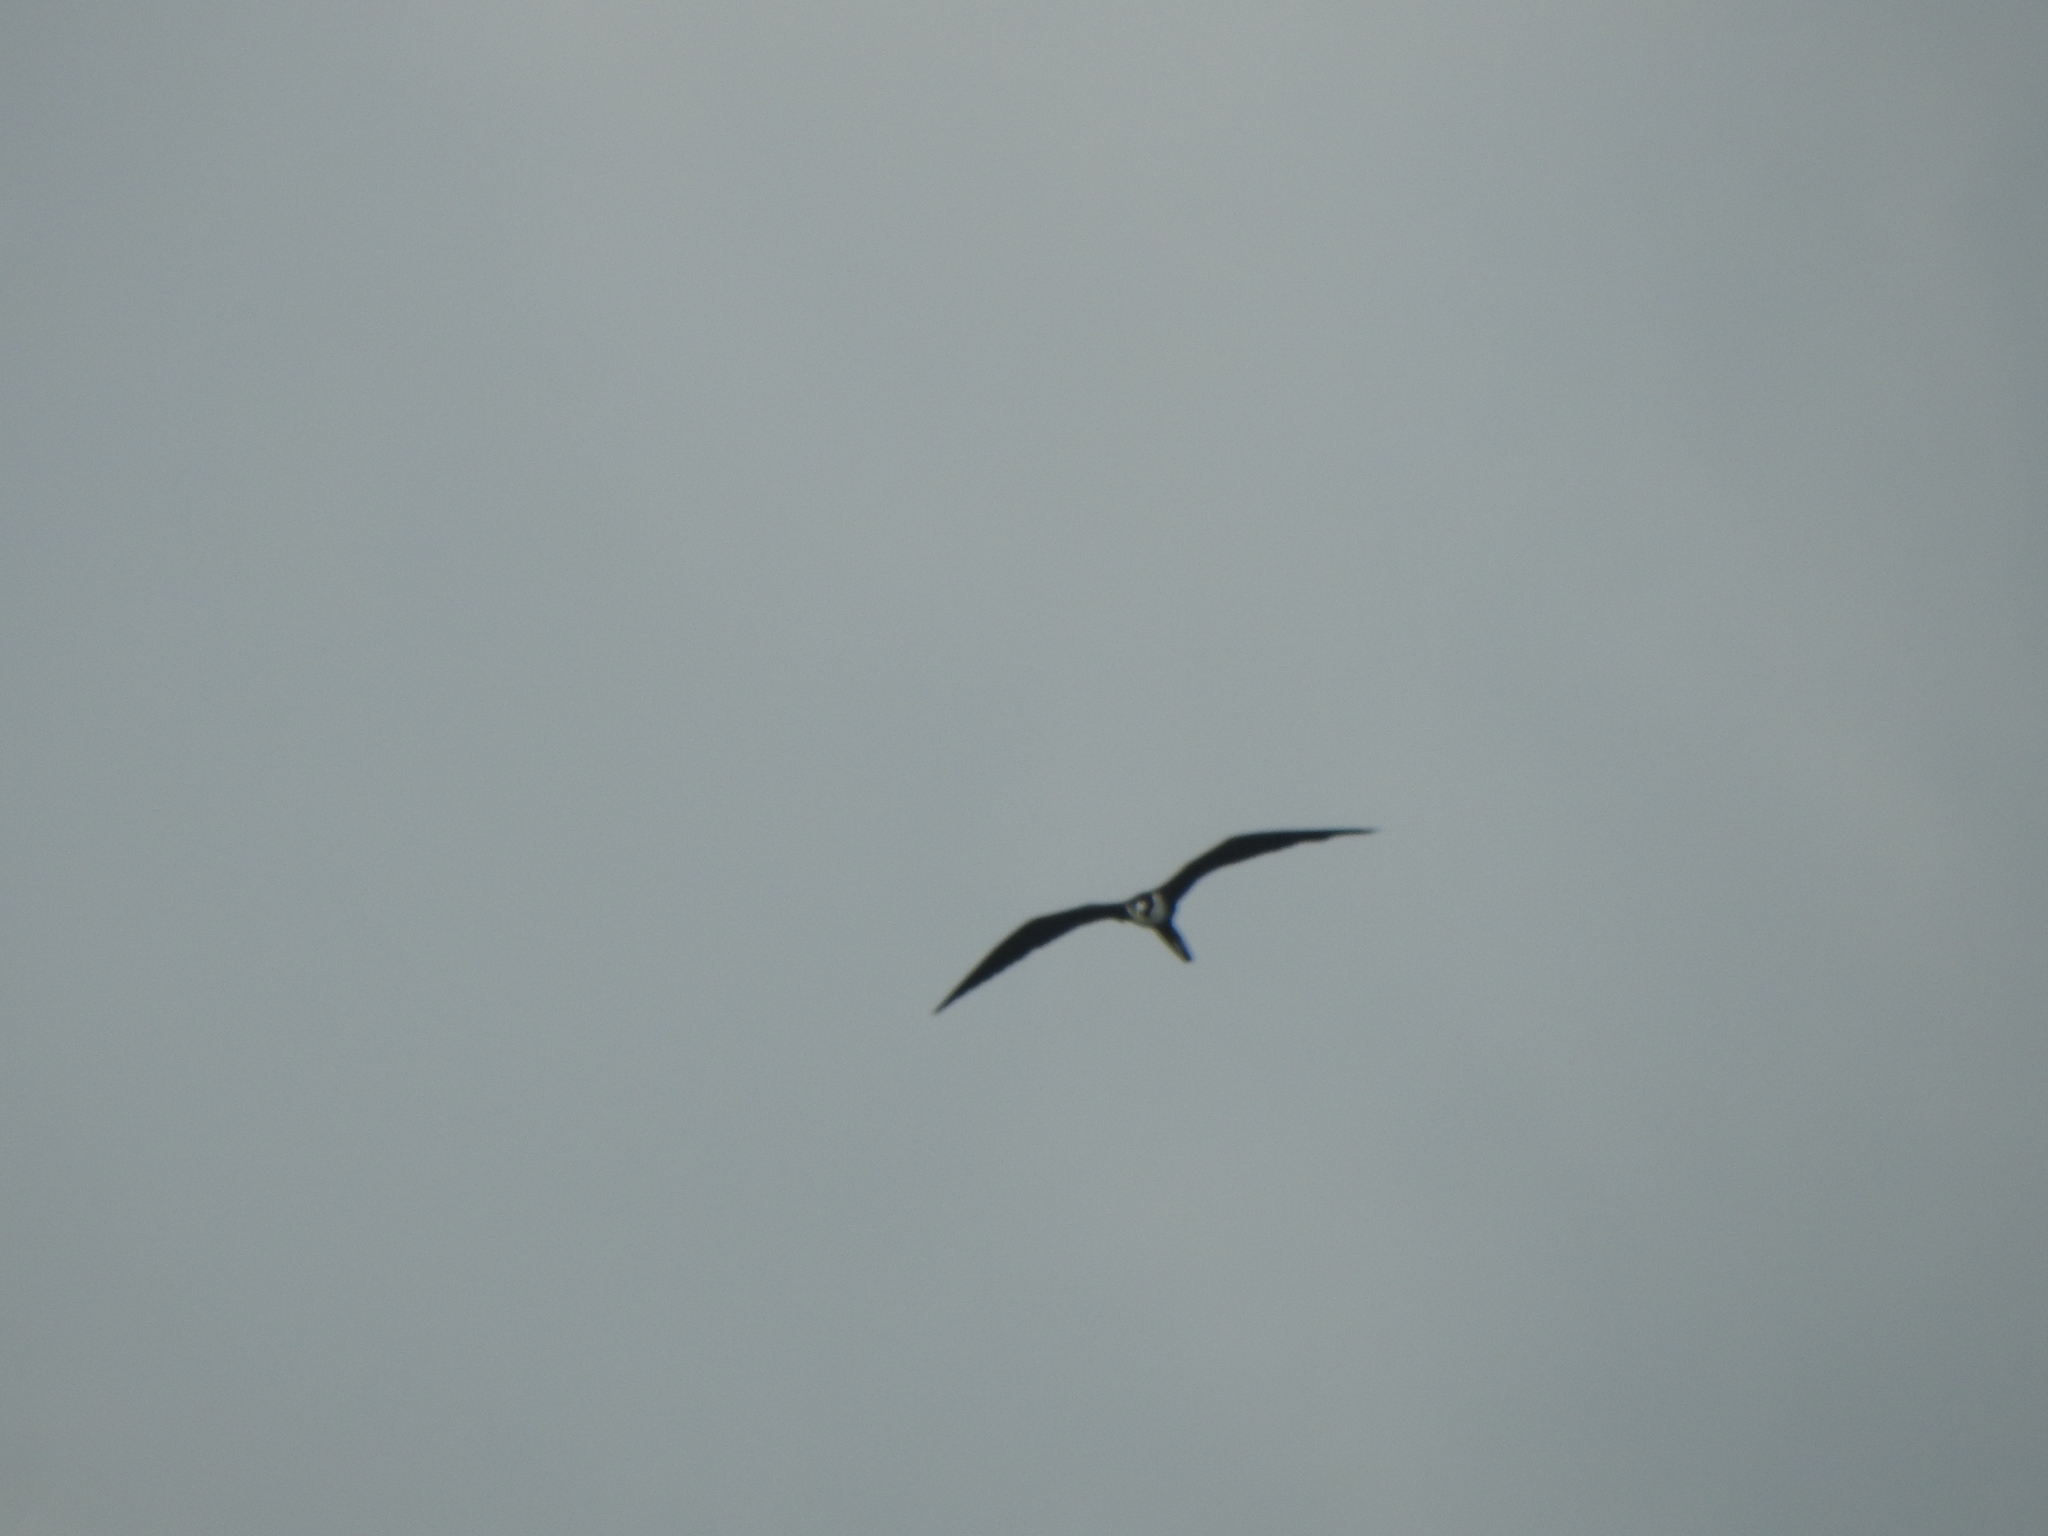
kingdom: Animalia
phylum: Chordata
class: Aves
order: Suliformes
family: Fregatidae
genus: Fregata
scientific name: Fregata magnificens
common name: Magnificent frigatebird
